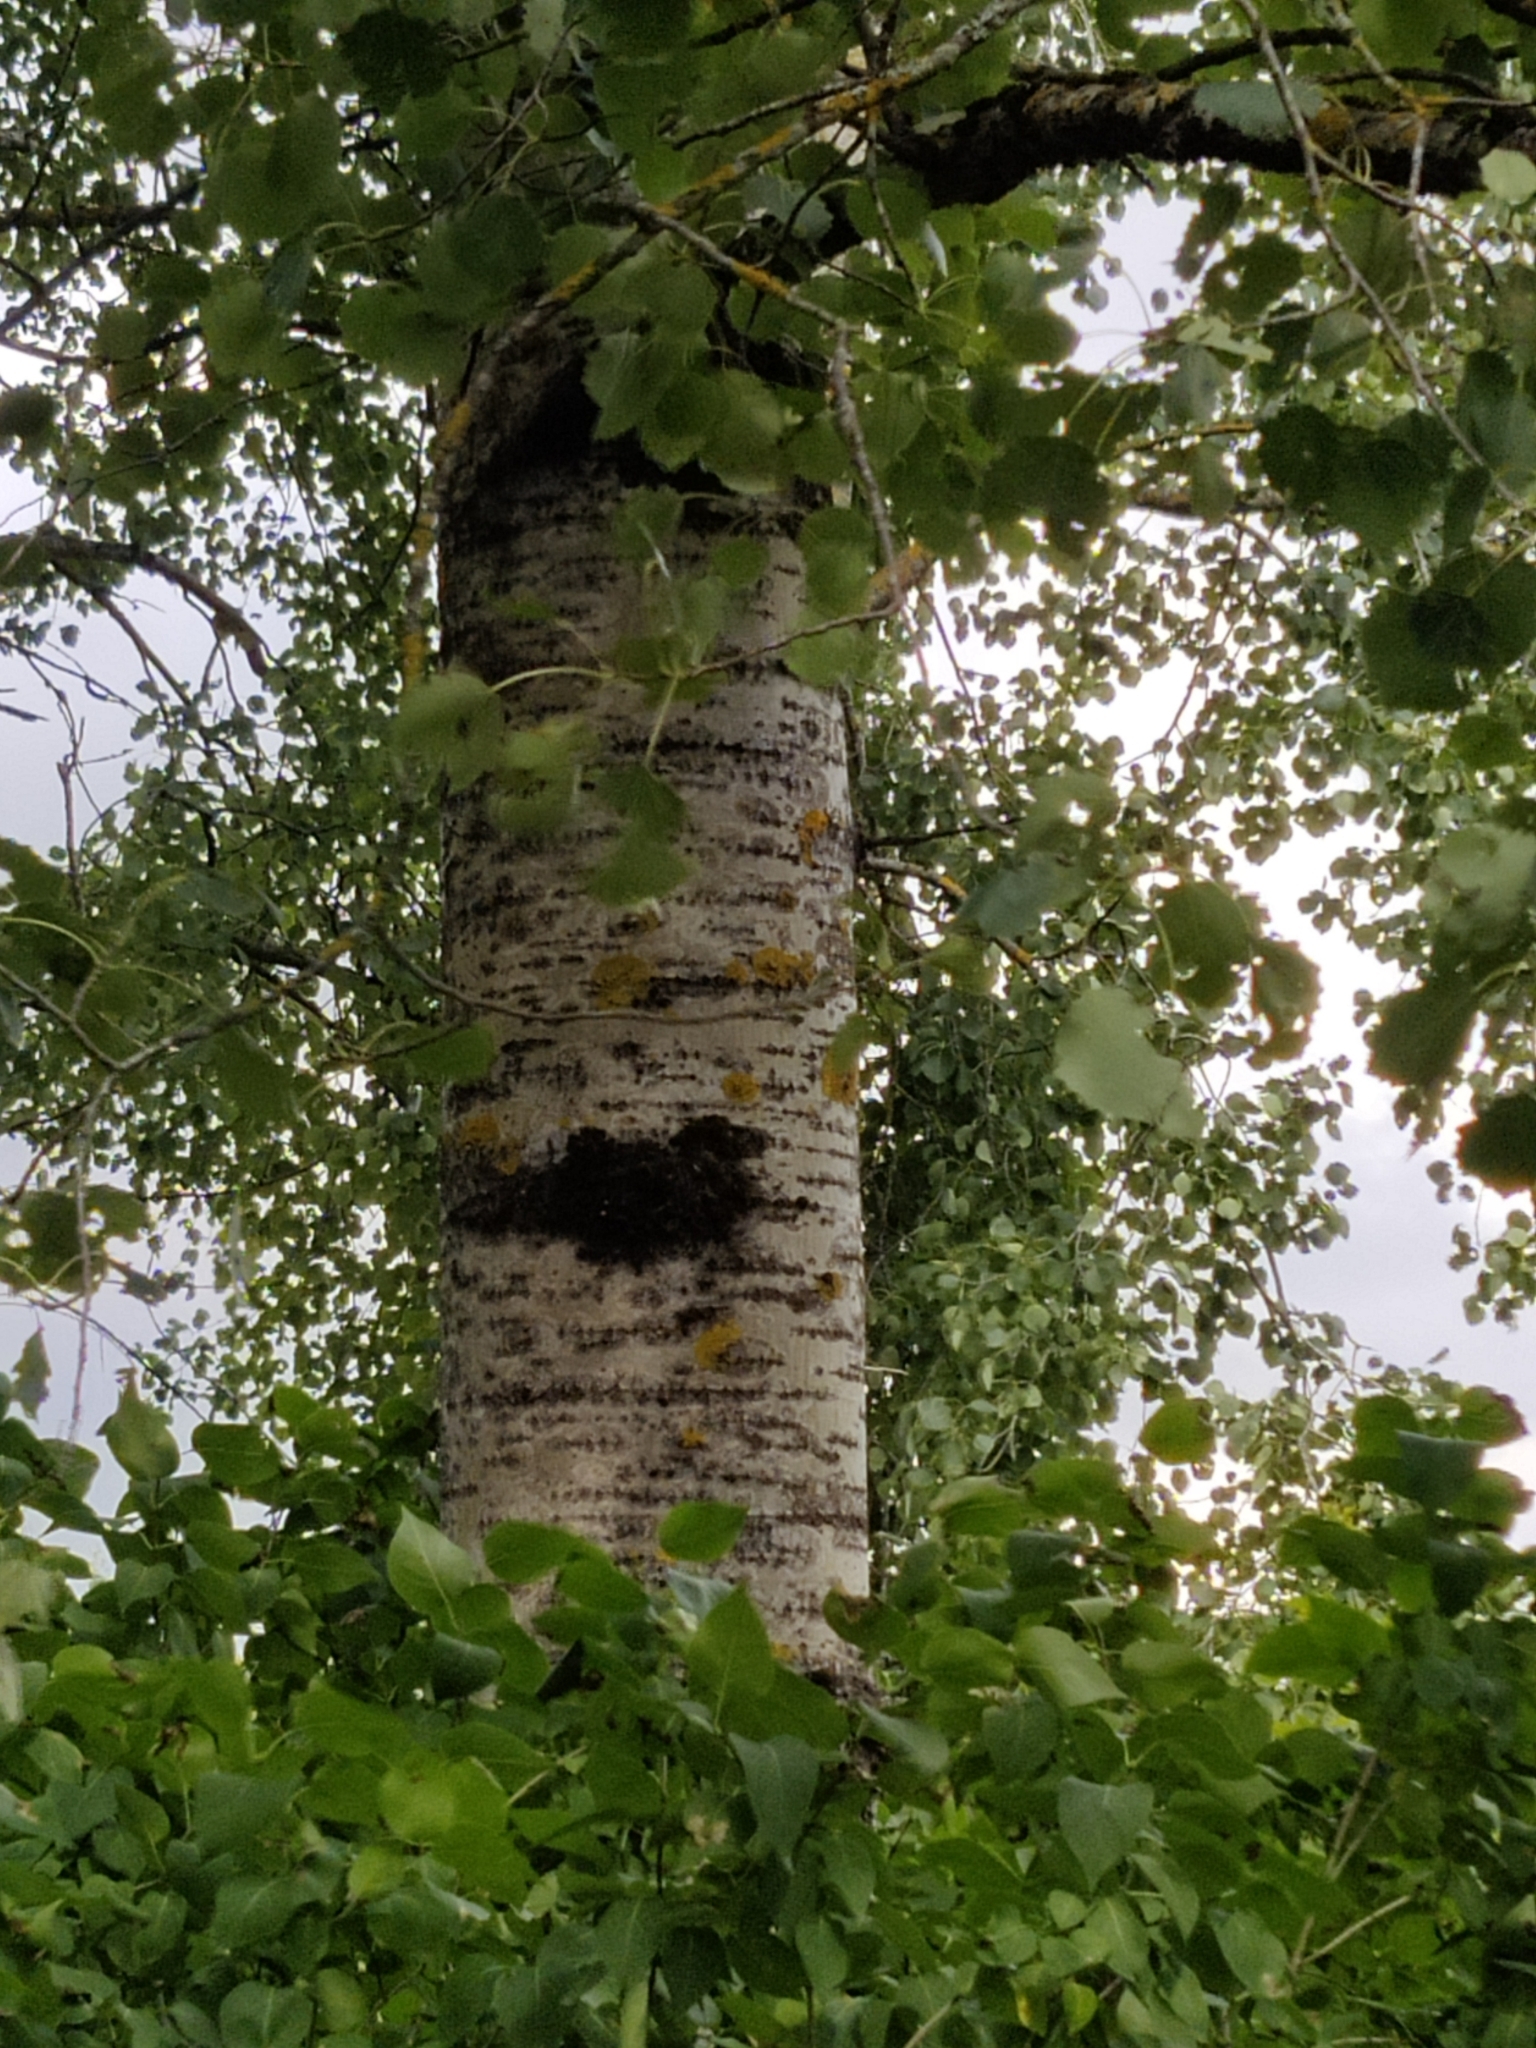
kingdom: Plantae
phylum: Tracheophyta
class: Magnoliopsida
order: Malpighiales
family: Salicaceae
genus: Populus
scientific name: Populus tremula
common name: European aspen
